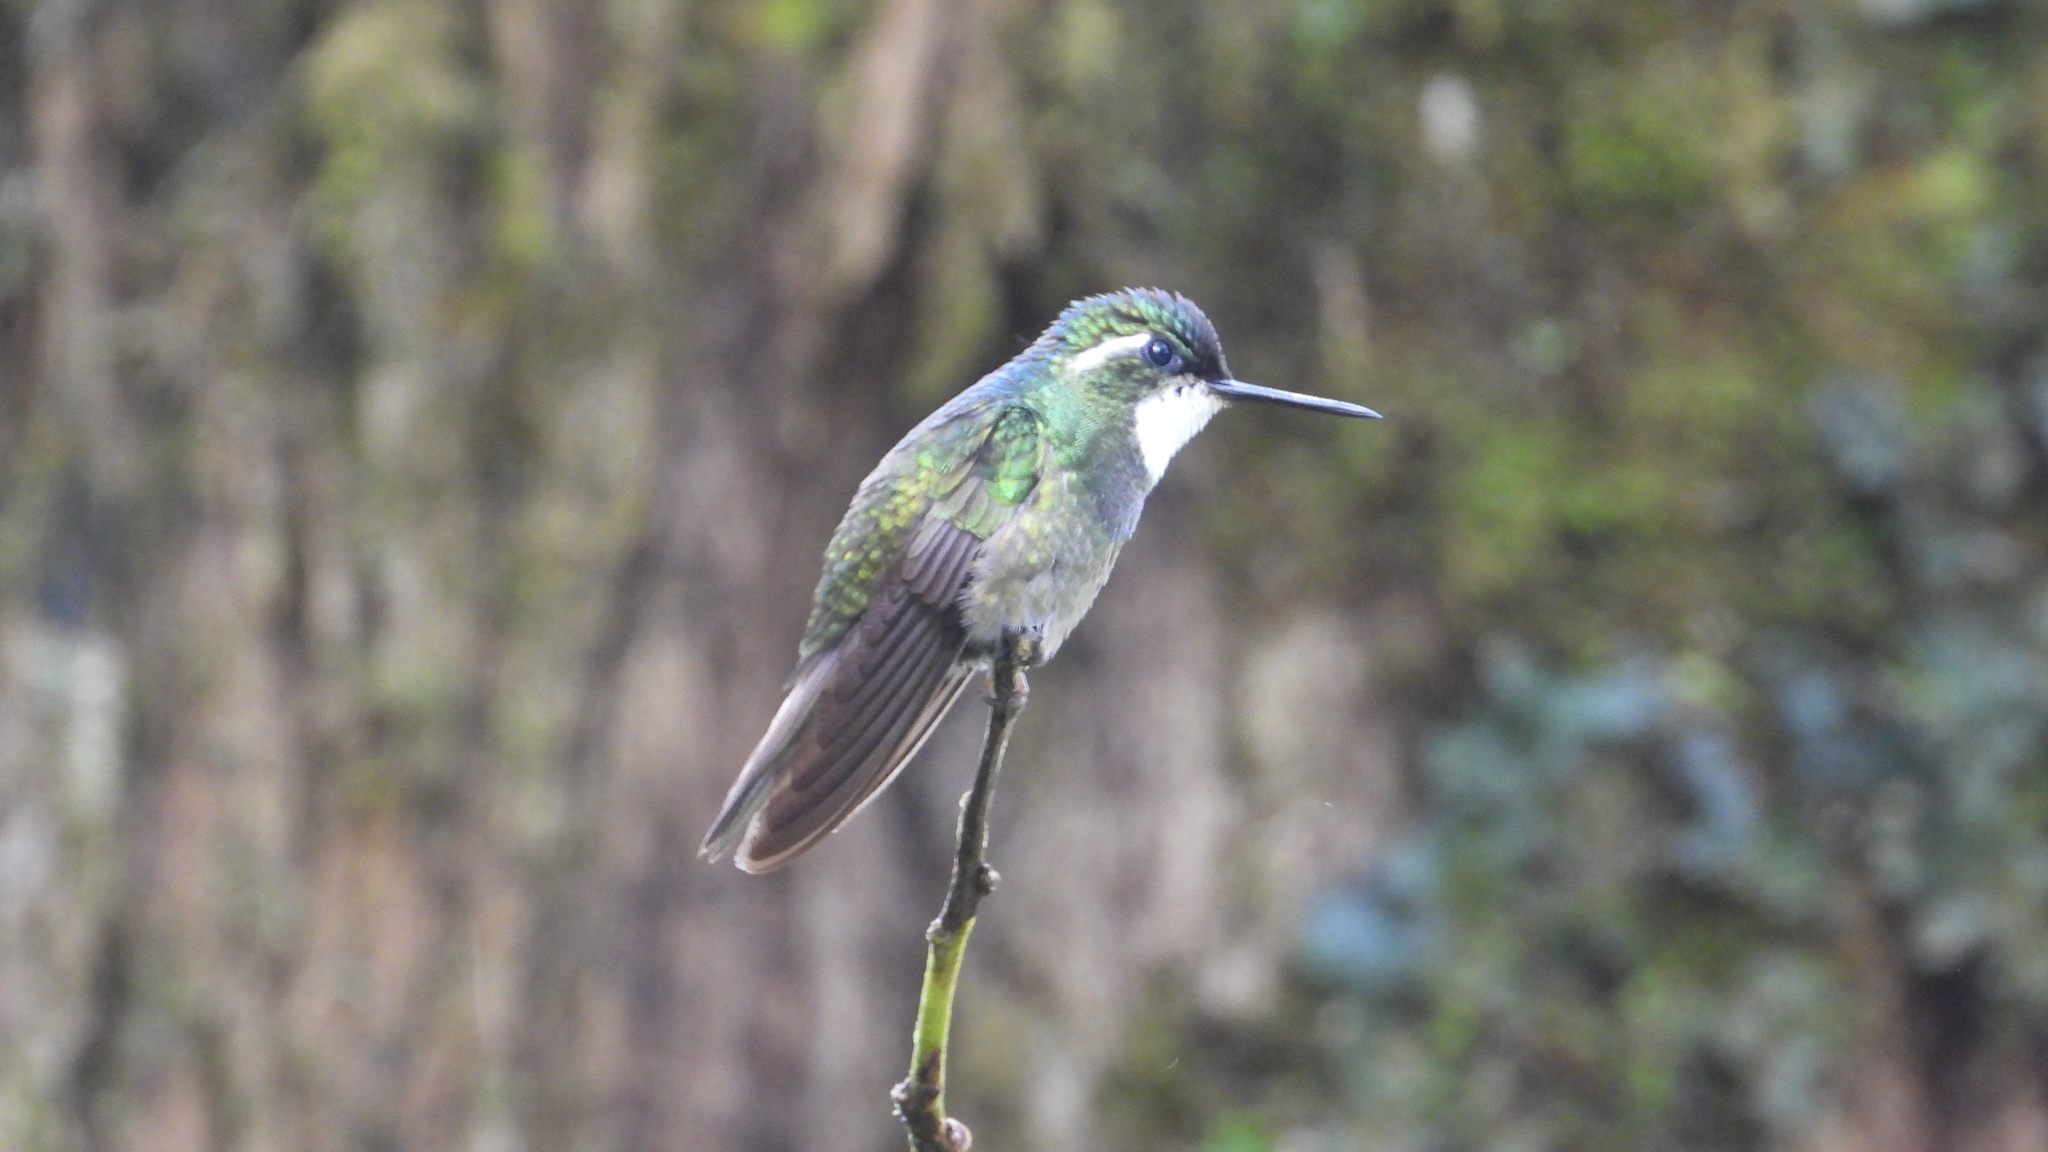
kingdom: Animalia
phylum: Chordata
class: Aves
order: Apodiformes
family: Trochilidae
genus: Lampornis
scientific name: Lampornis castaneoventris
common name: White-throated mountain-gem
